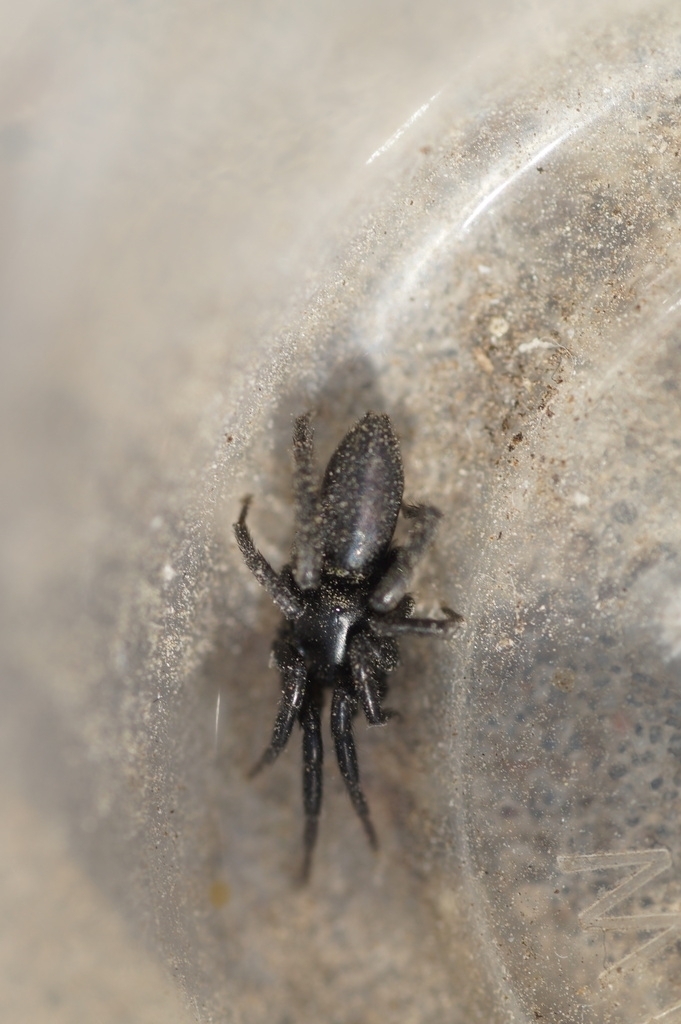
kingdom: Animalia
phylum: Arthropoda
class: Arachnida
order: Araneae
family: Gnaphosidae
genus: Zelotes
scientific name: Zelotes latreillei
